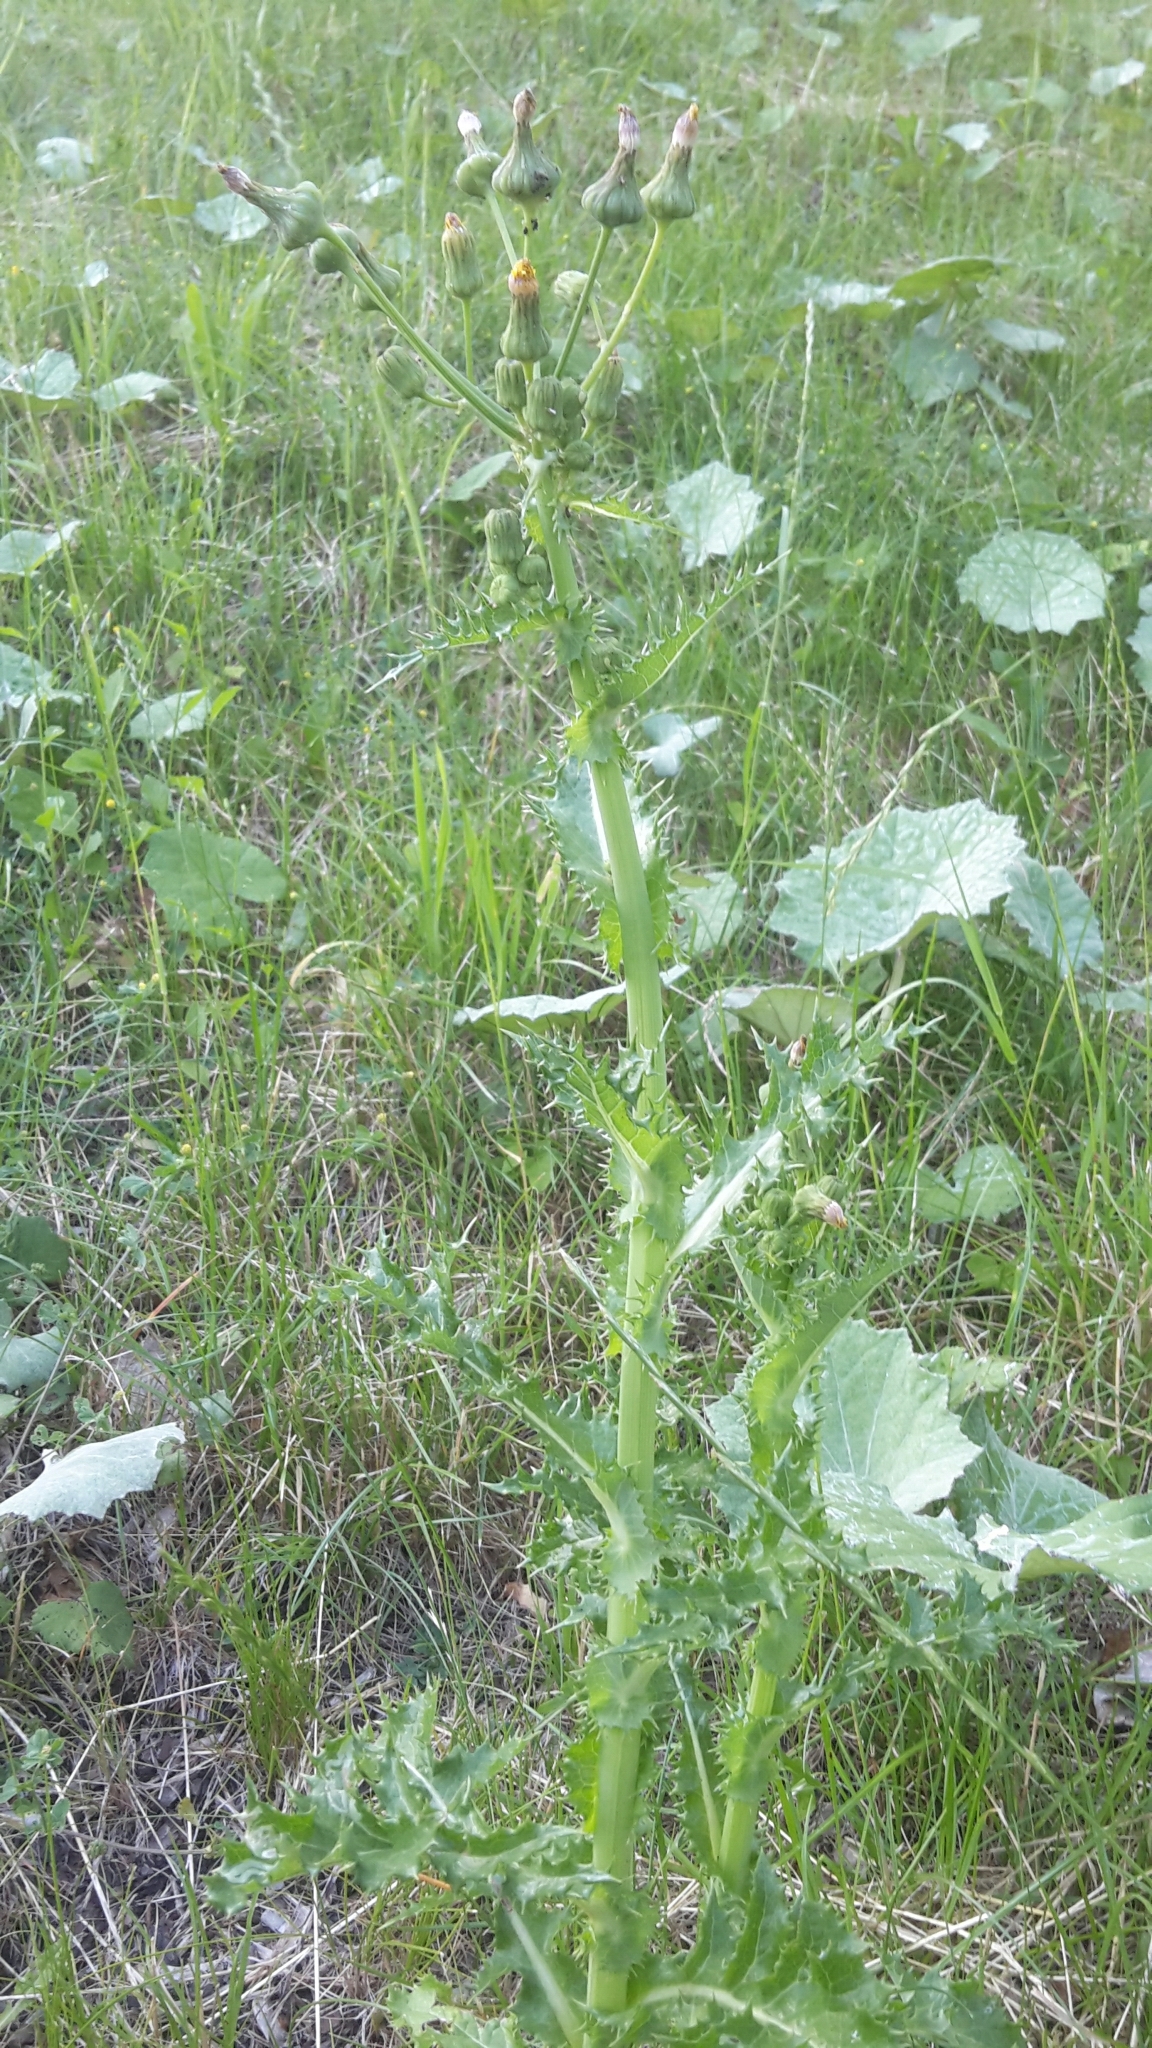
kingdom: Plantae
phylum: Tracheophyta
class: Magnoliopsida
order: Asterales
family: Asteraceae
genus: Sonchus
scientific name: Sonchus asper
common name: Prickly sow-thistle
